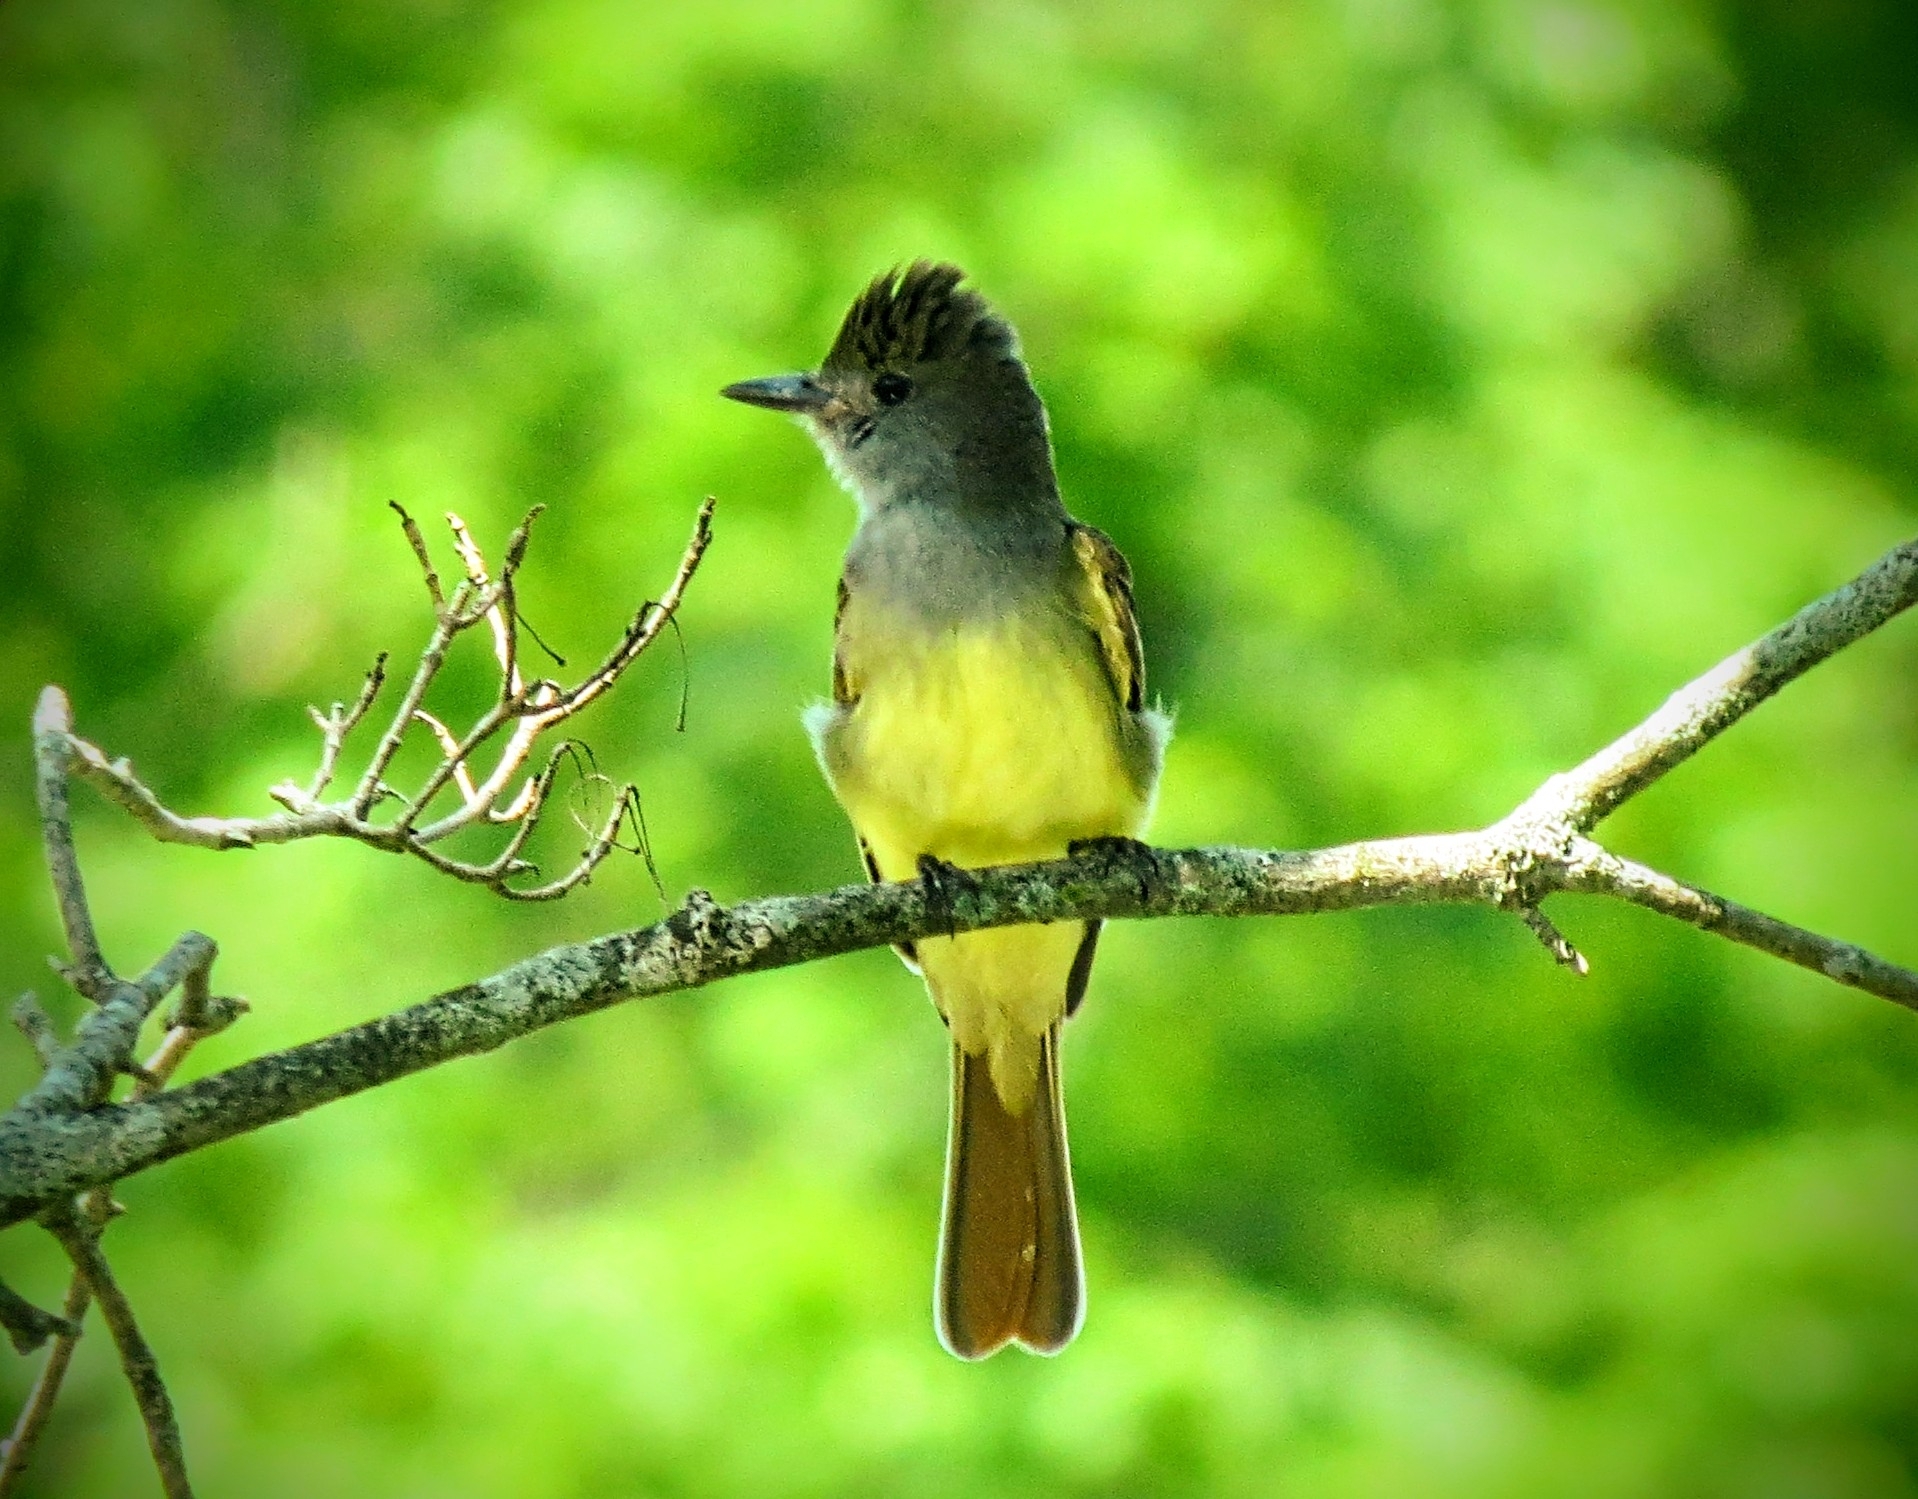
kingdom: Animalia
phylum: Chordata
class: Aves
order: Passeriformes
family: Tyrannidae
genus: Myiarchus
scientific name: Myiarchus crinitus
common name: Great crested flycatcher
